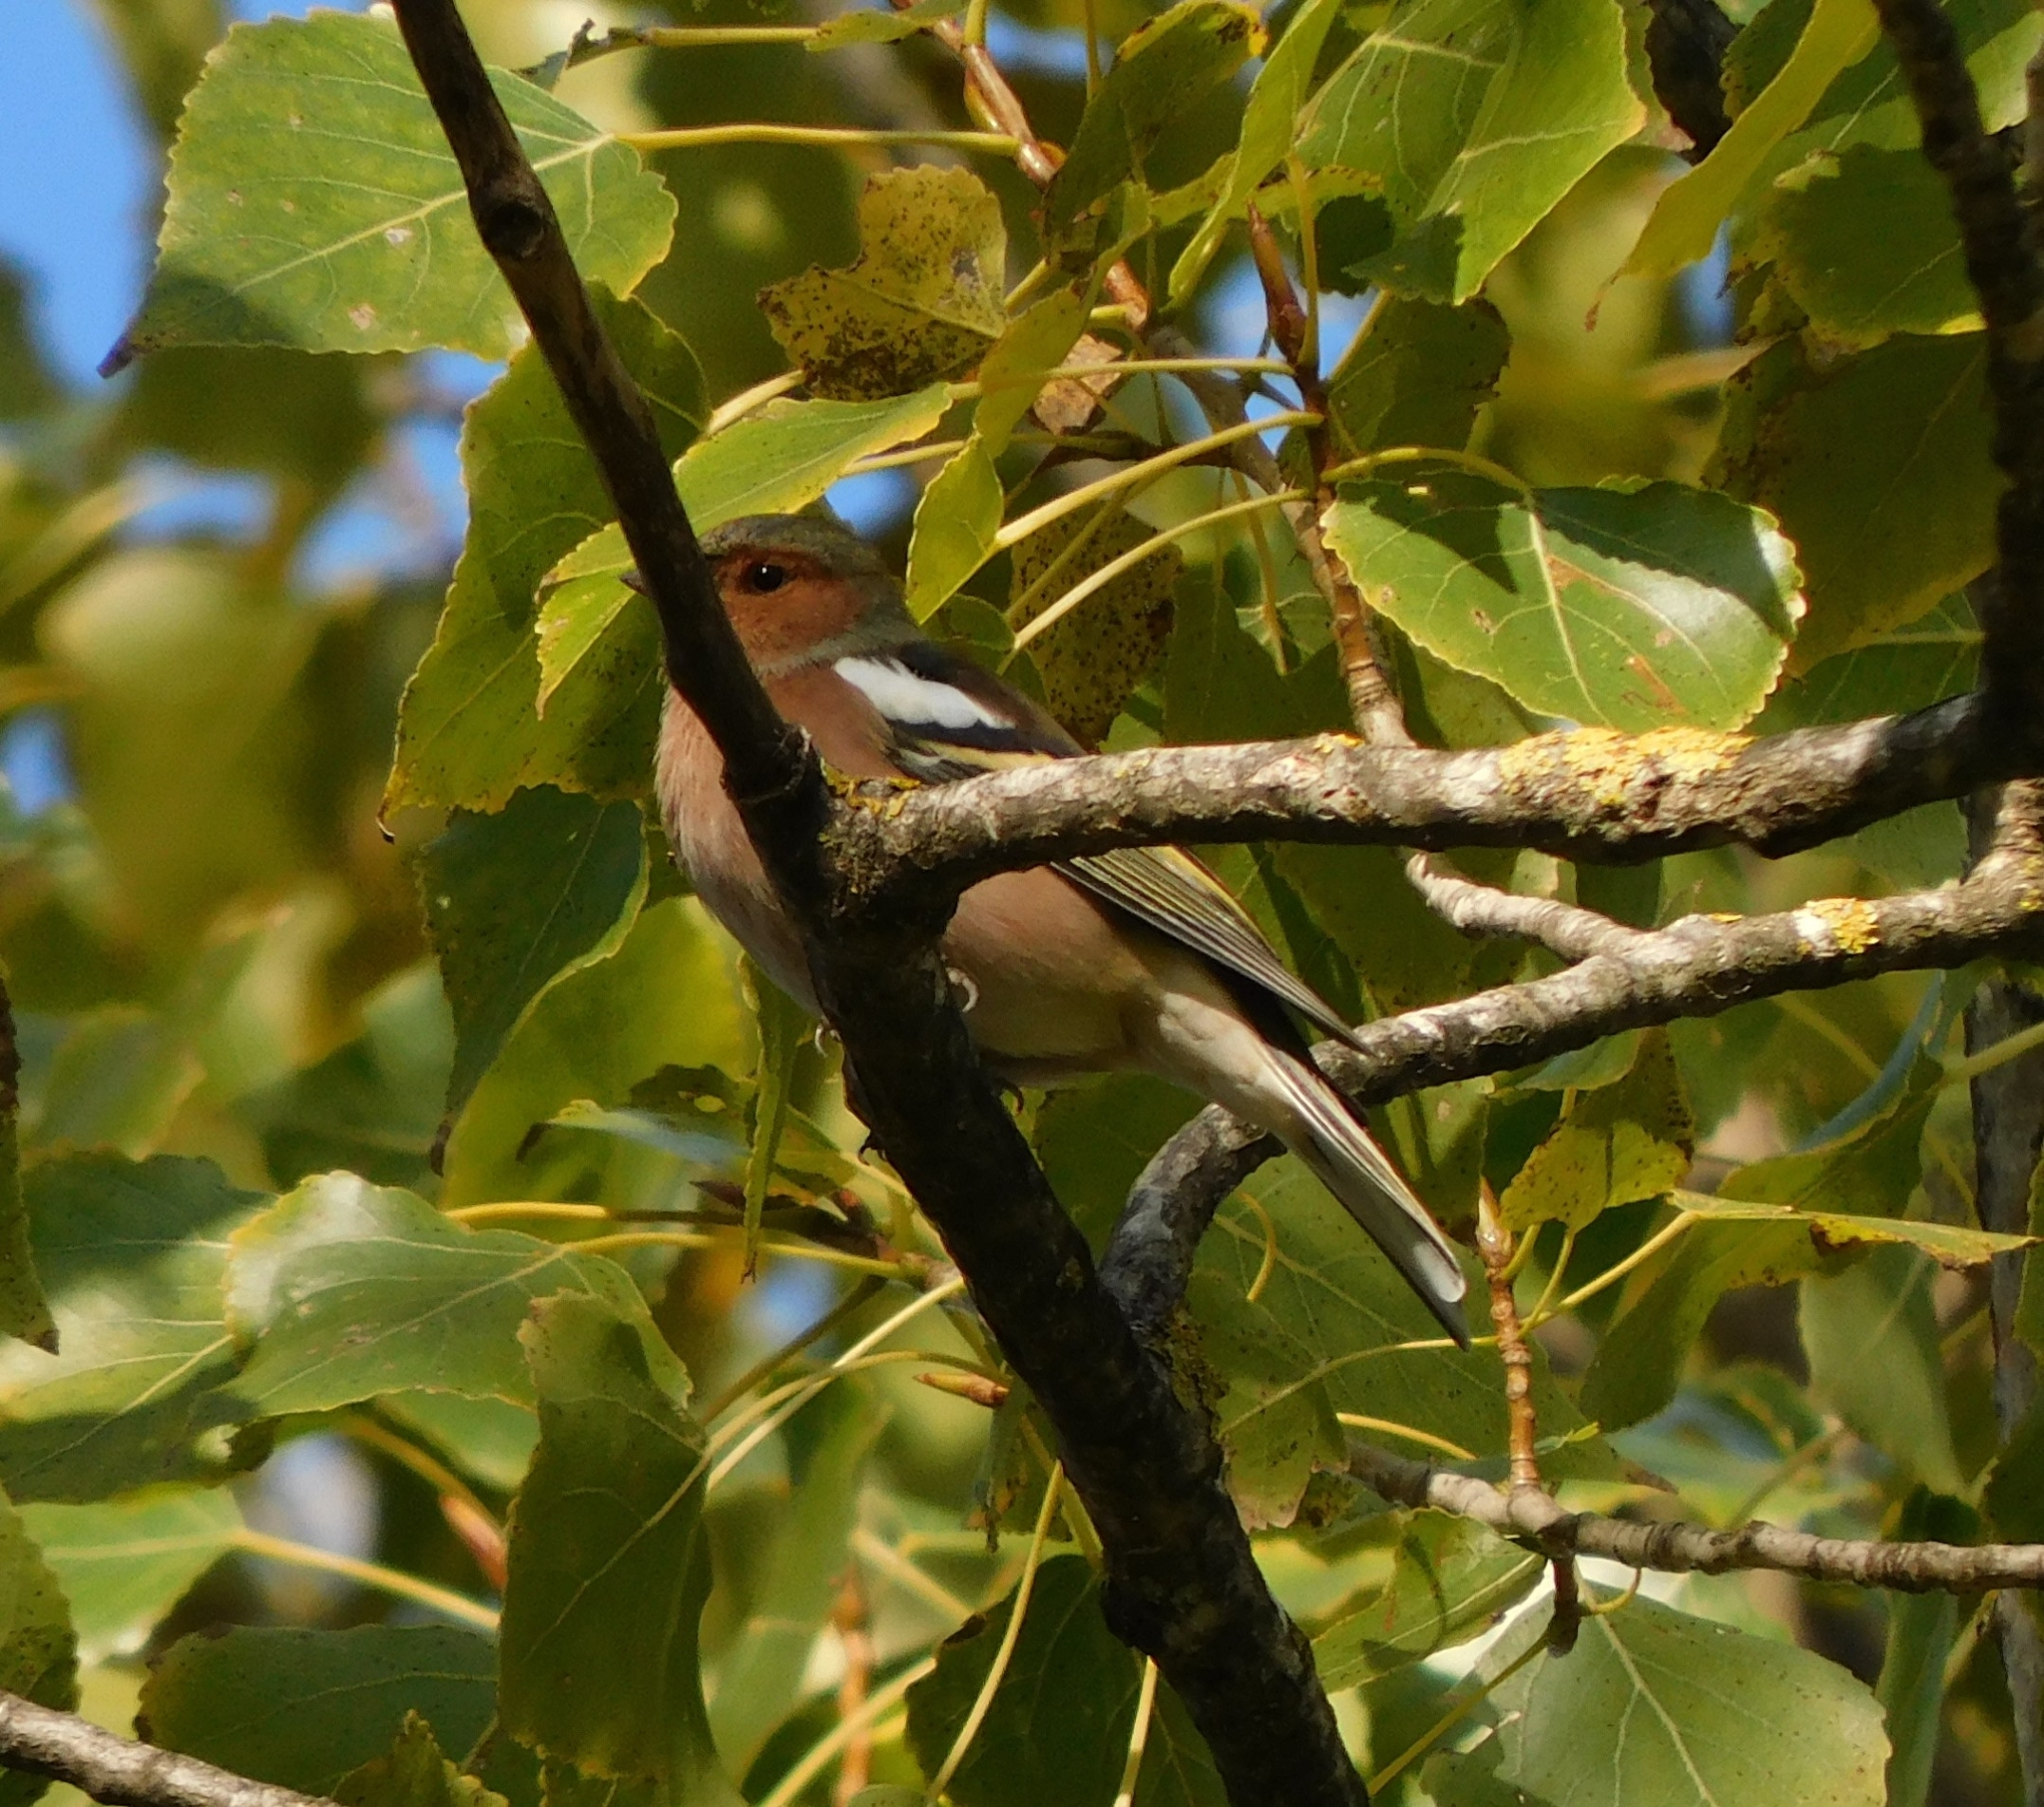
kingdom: Animalia
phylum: Chordata
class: Aves
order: Passeriformes
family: Fringillidae
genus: Fringilla
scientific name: Fringilla coelebs
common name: Common chaffinch
